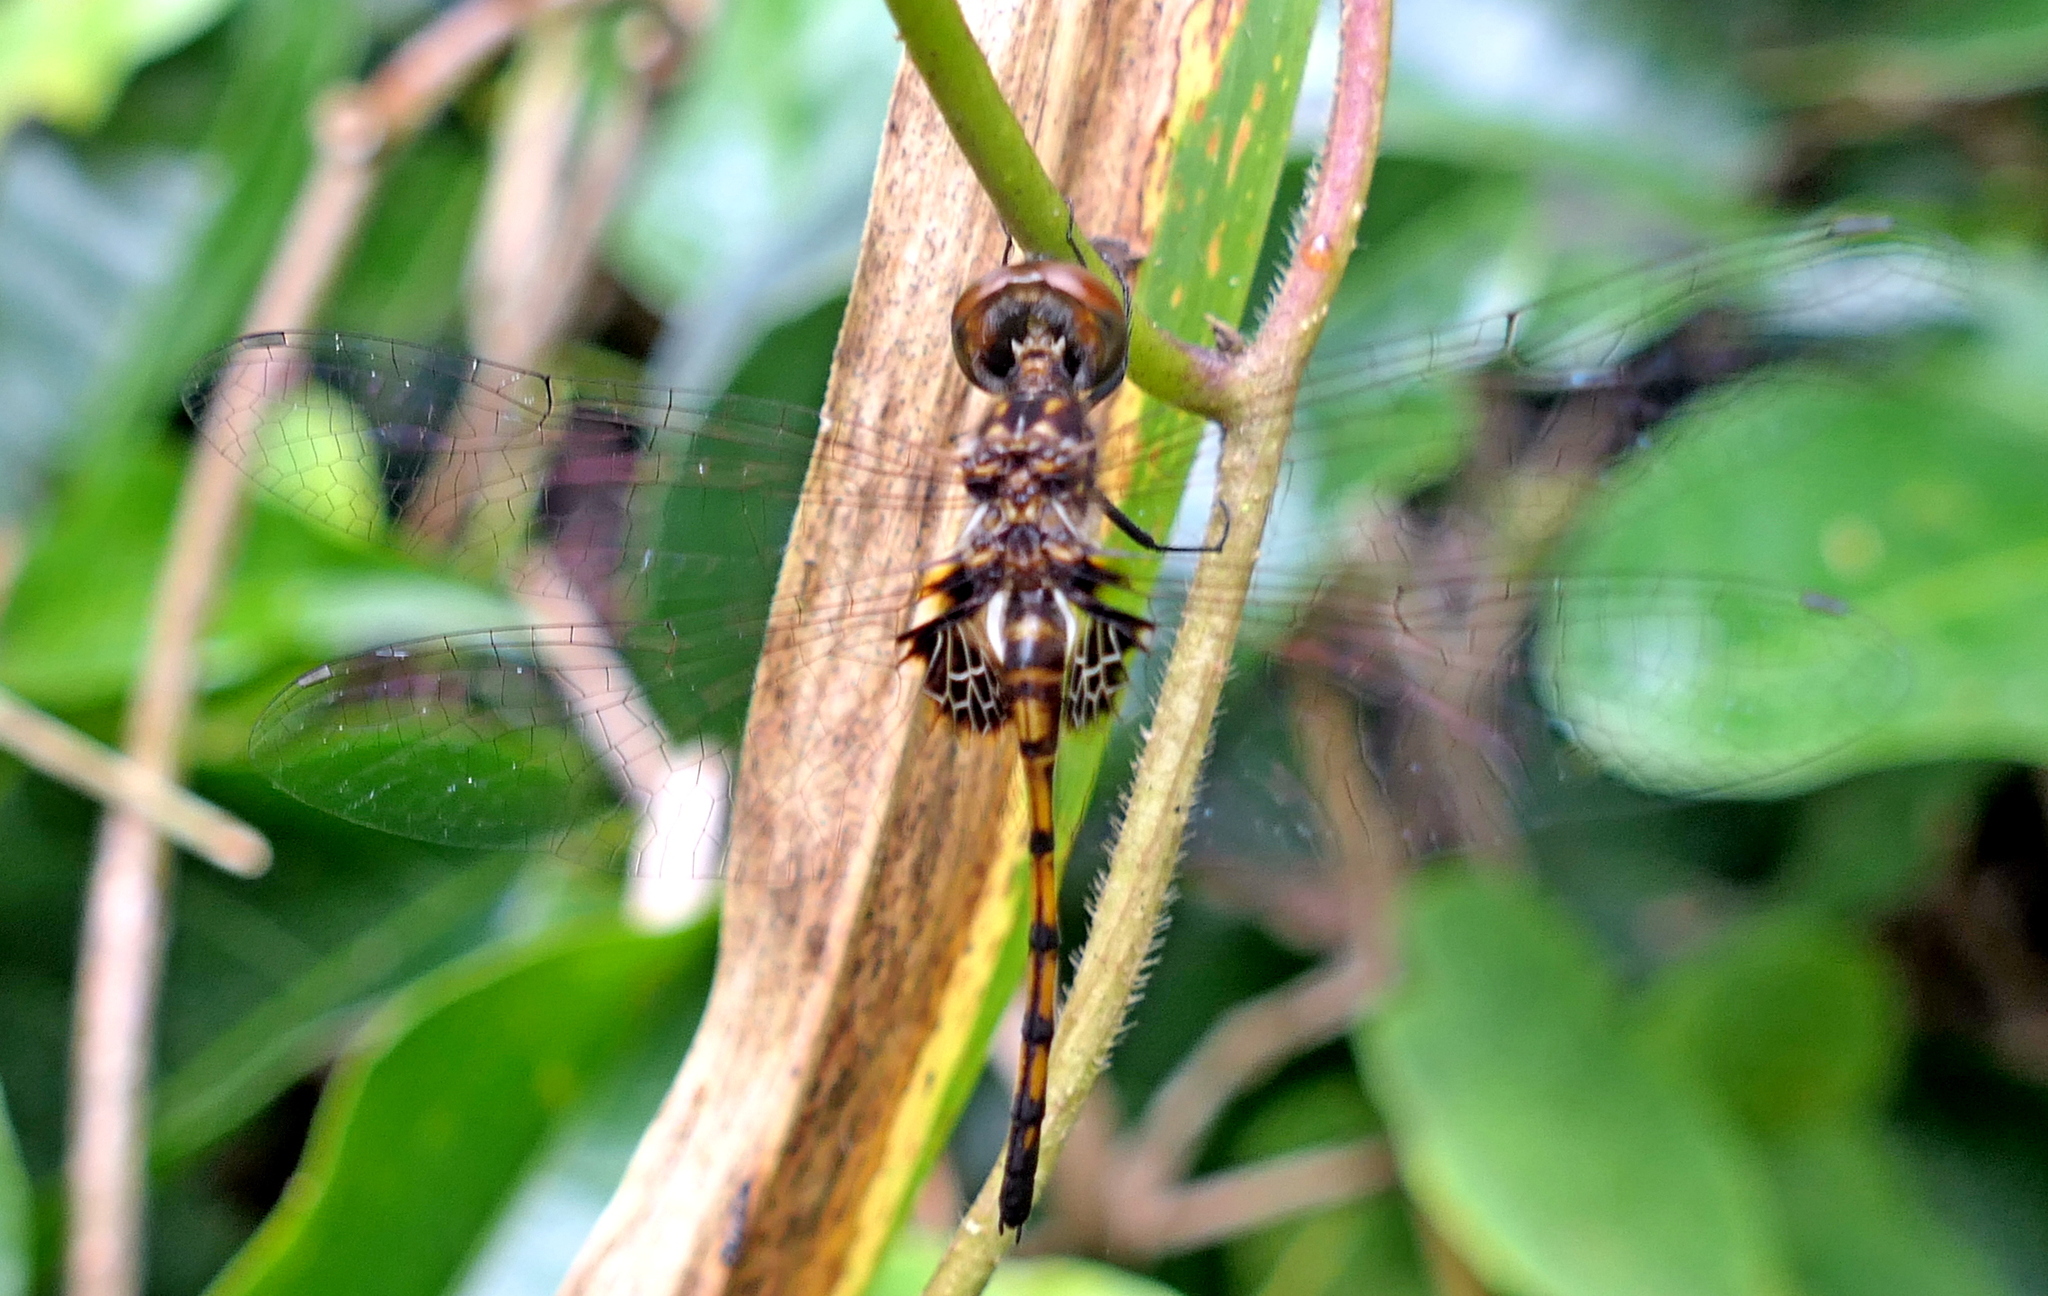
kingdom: Animalia
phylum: Arthropoda
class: Insecta
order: Odonata
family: Libellulidae
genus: Miathyria
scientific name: Miathyria simplex
